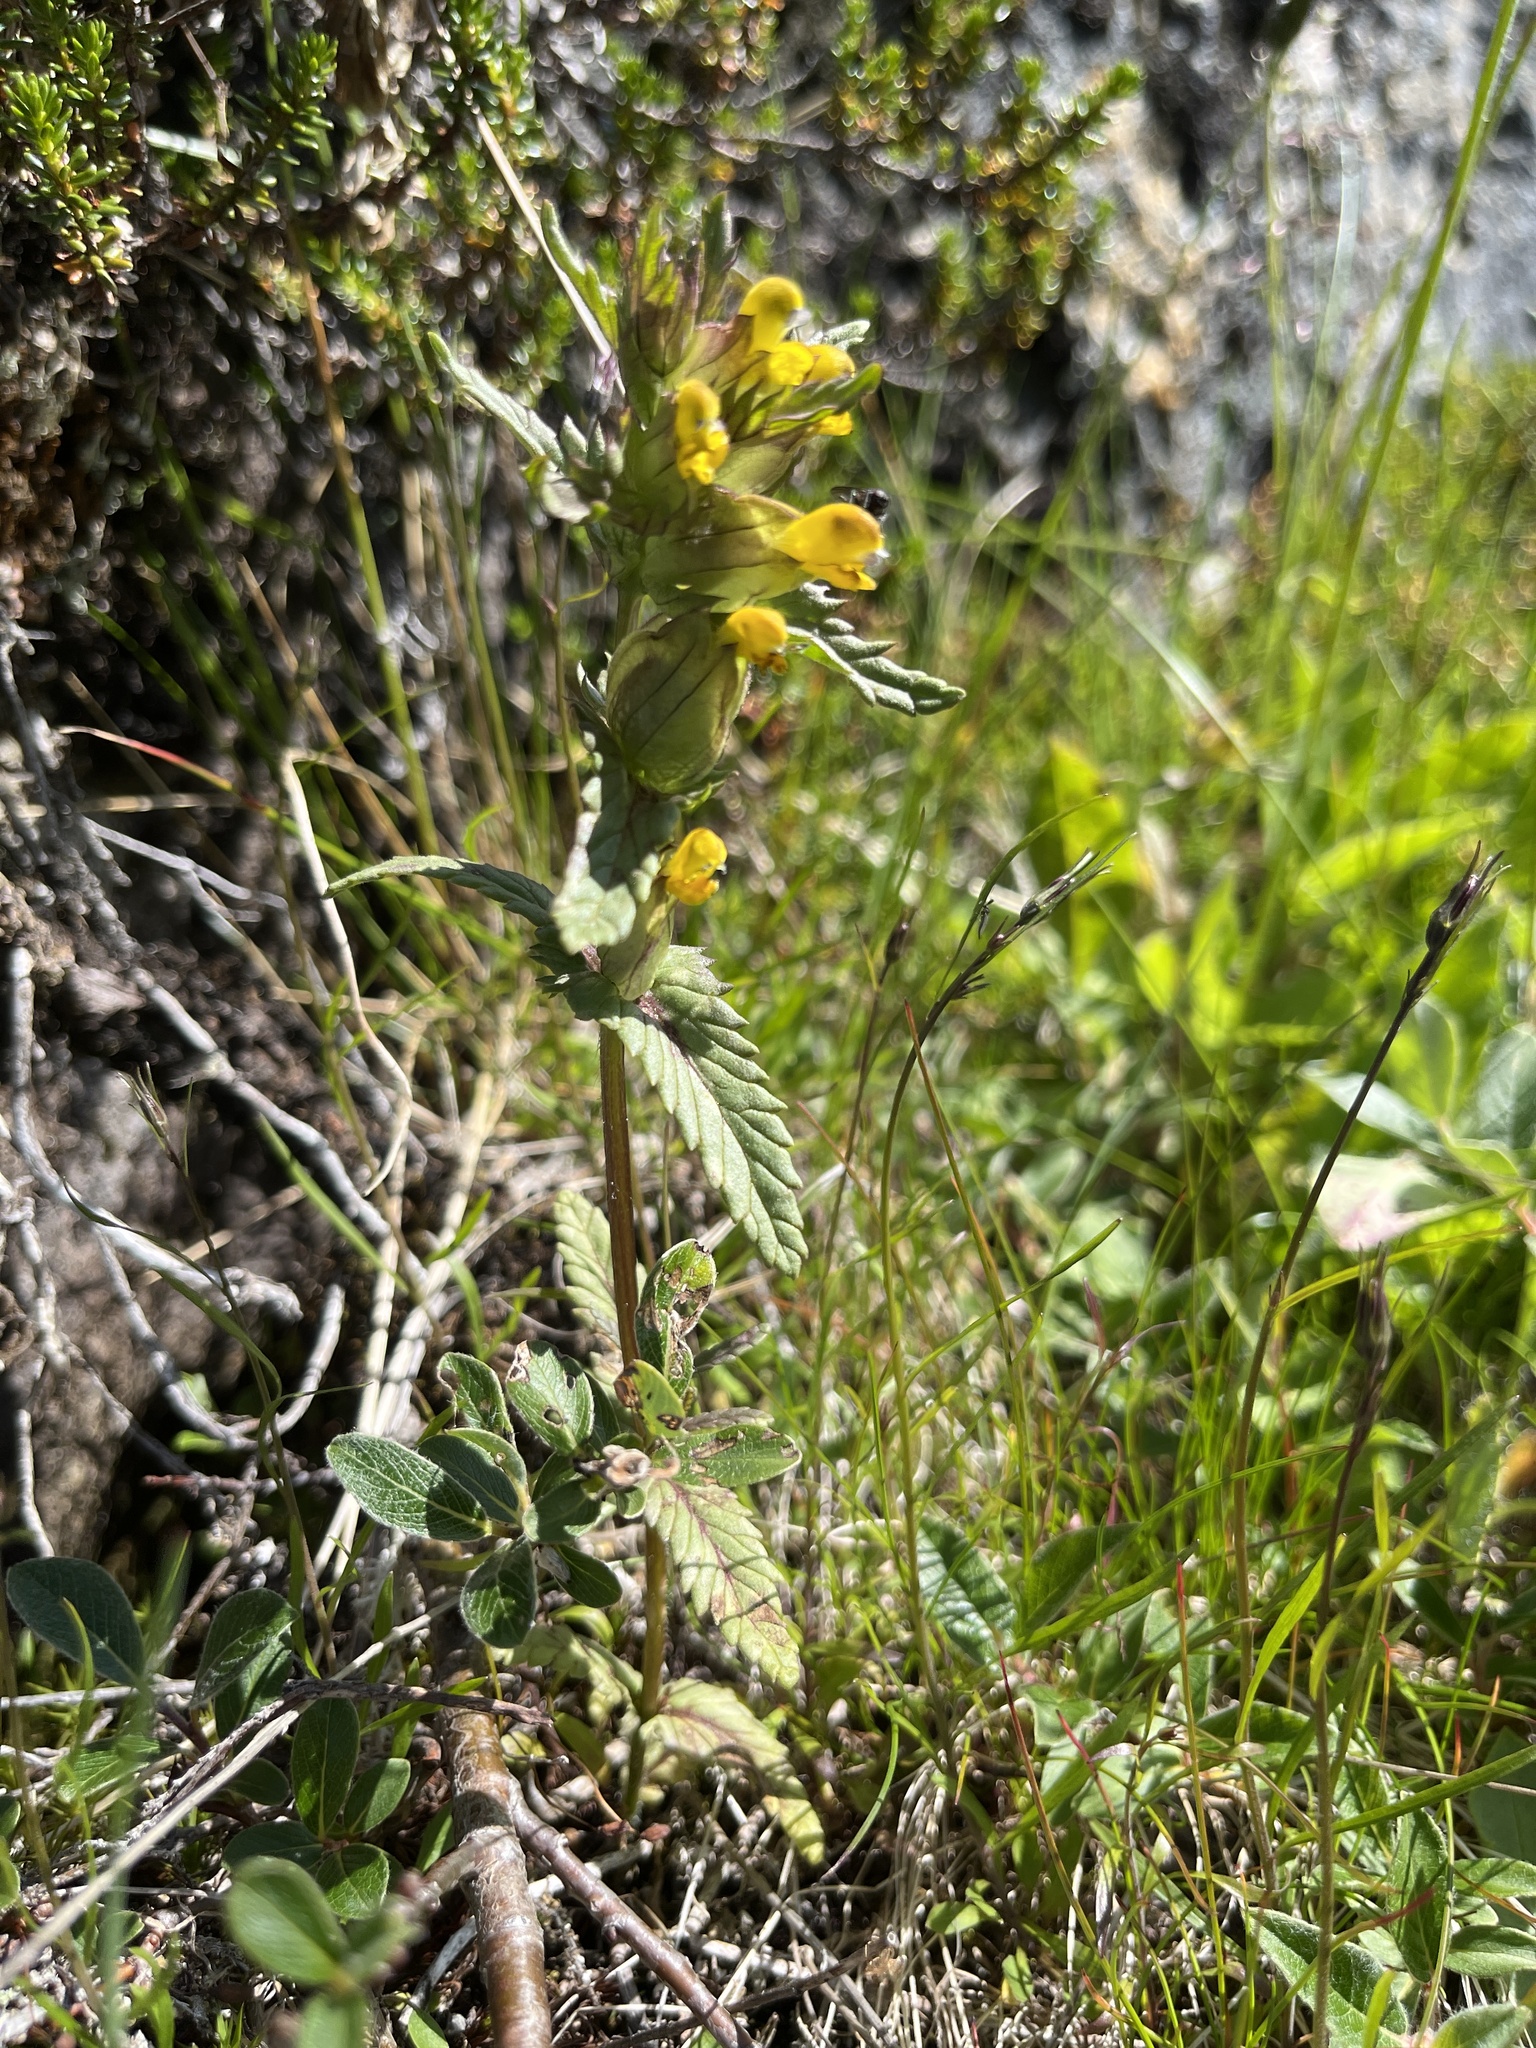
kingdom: Plantae
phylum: Tracheophyta
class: Magnoliopsida
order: Lamiales
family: Orobanchaceae
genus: Rhinanthus
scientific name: Rhinanthus minor
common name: Yellow-rattle
